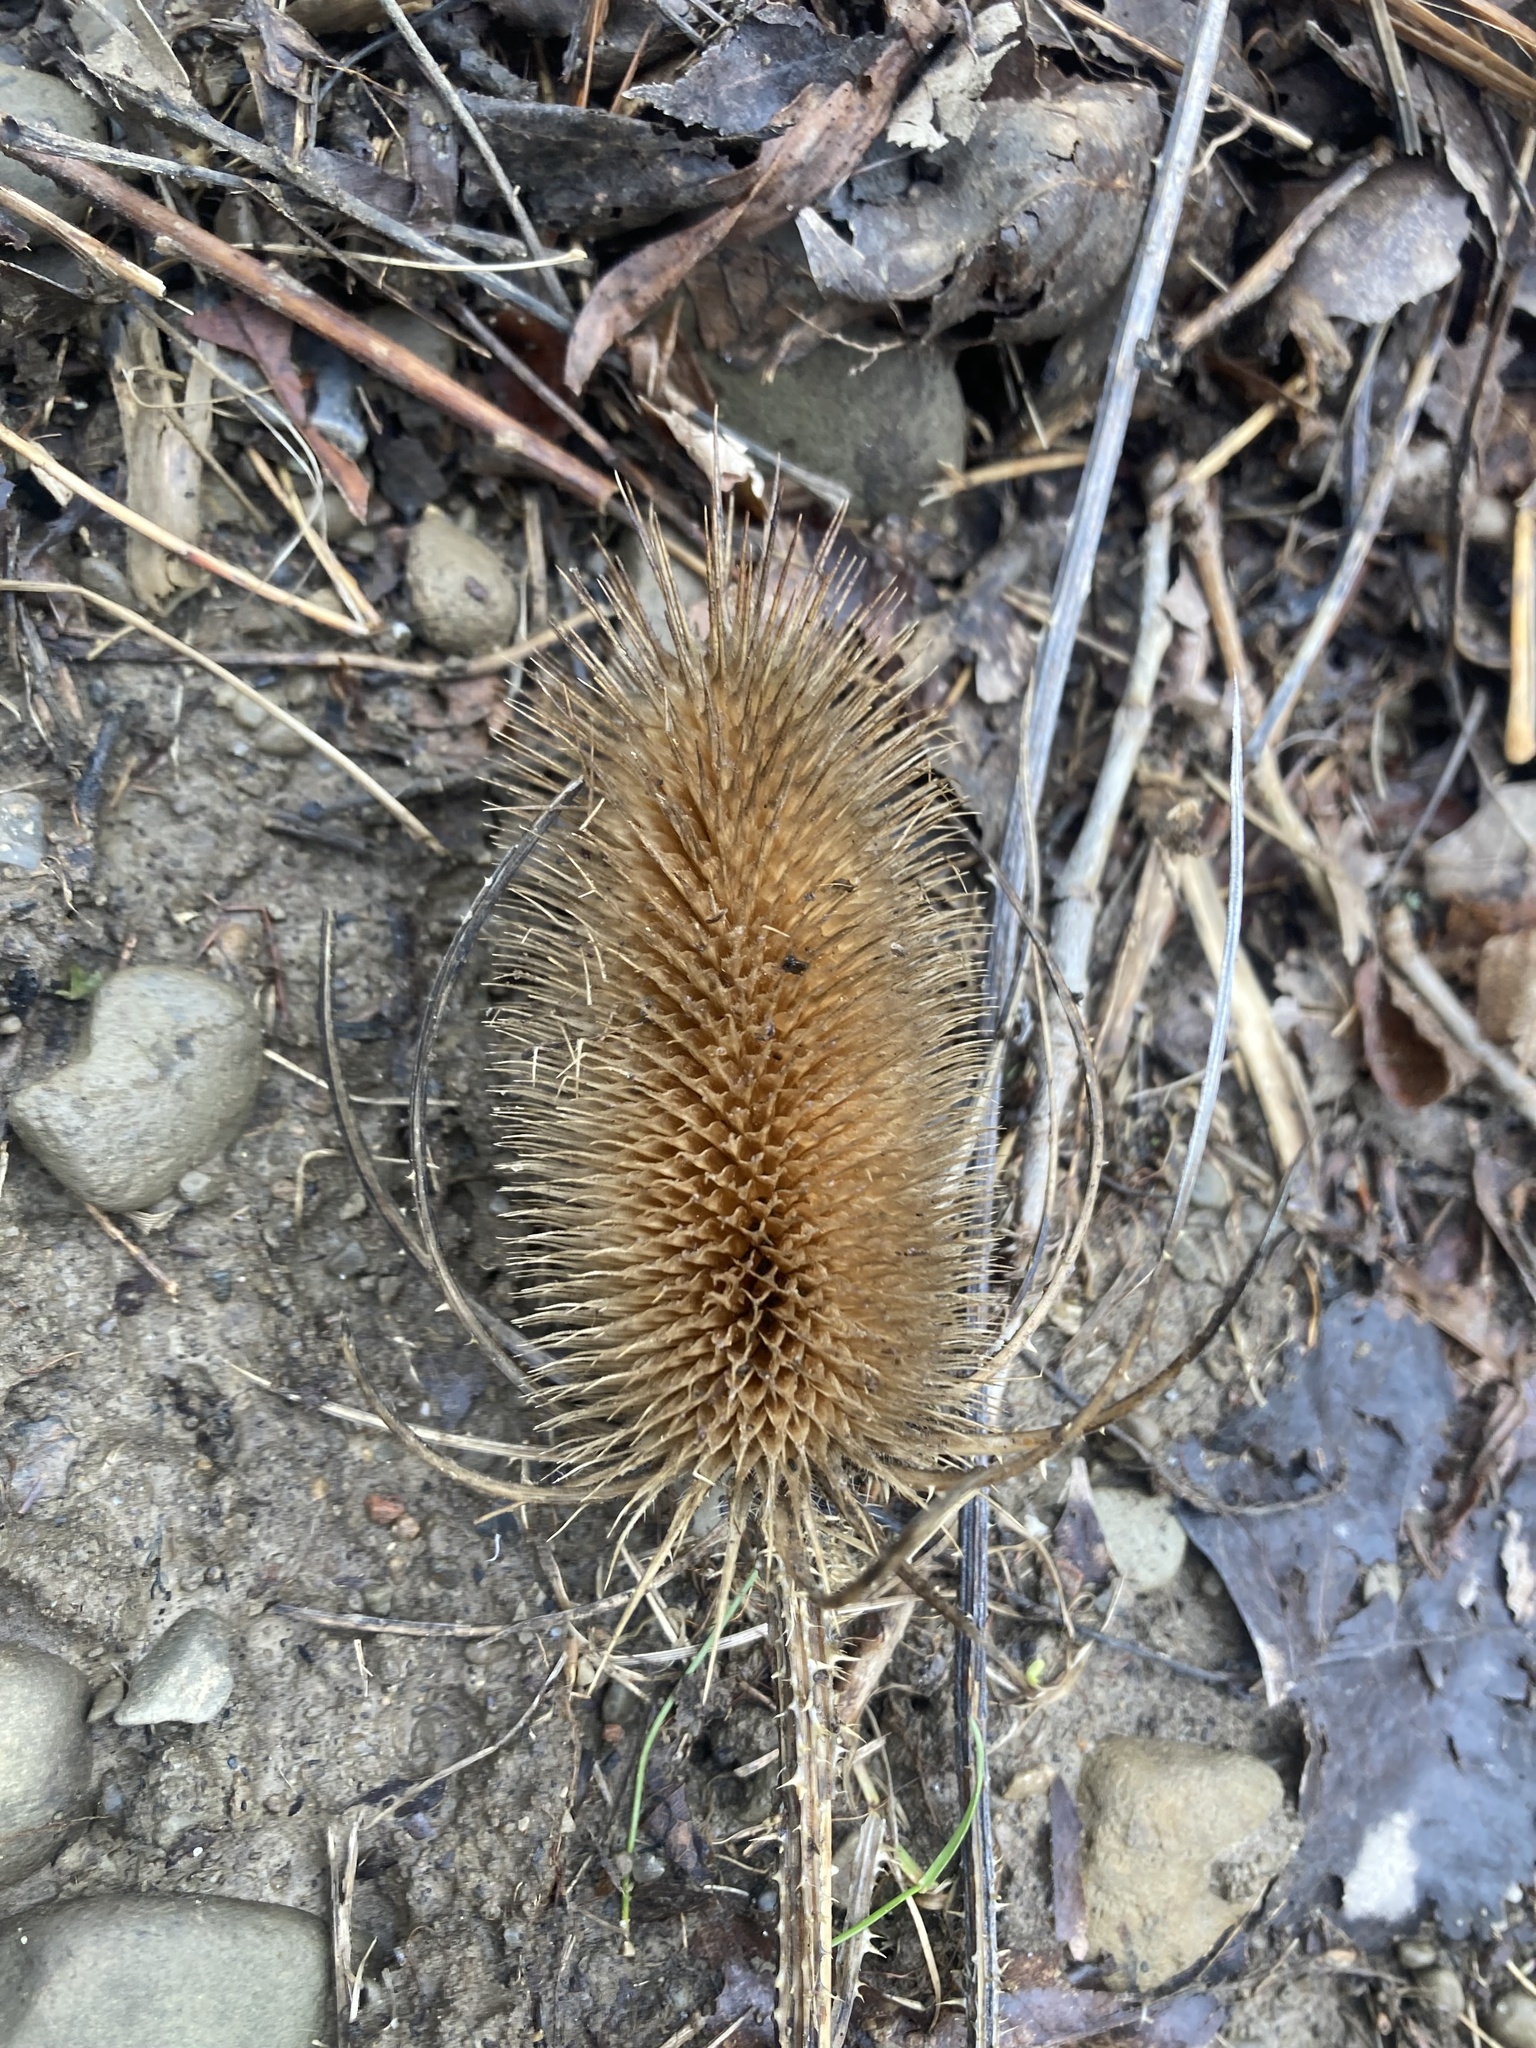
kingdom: Plantae
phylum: Tracheophyta
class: Magnoliopsida
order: Dipsacales
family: Caprifoliaceae
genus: Dipsacus
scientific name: Dipsacus fullonum
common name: Teasel
